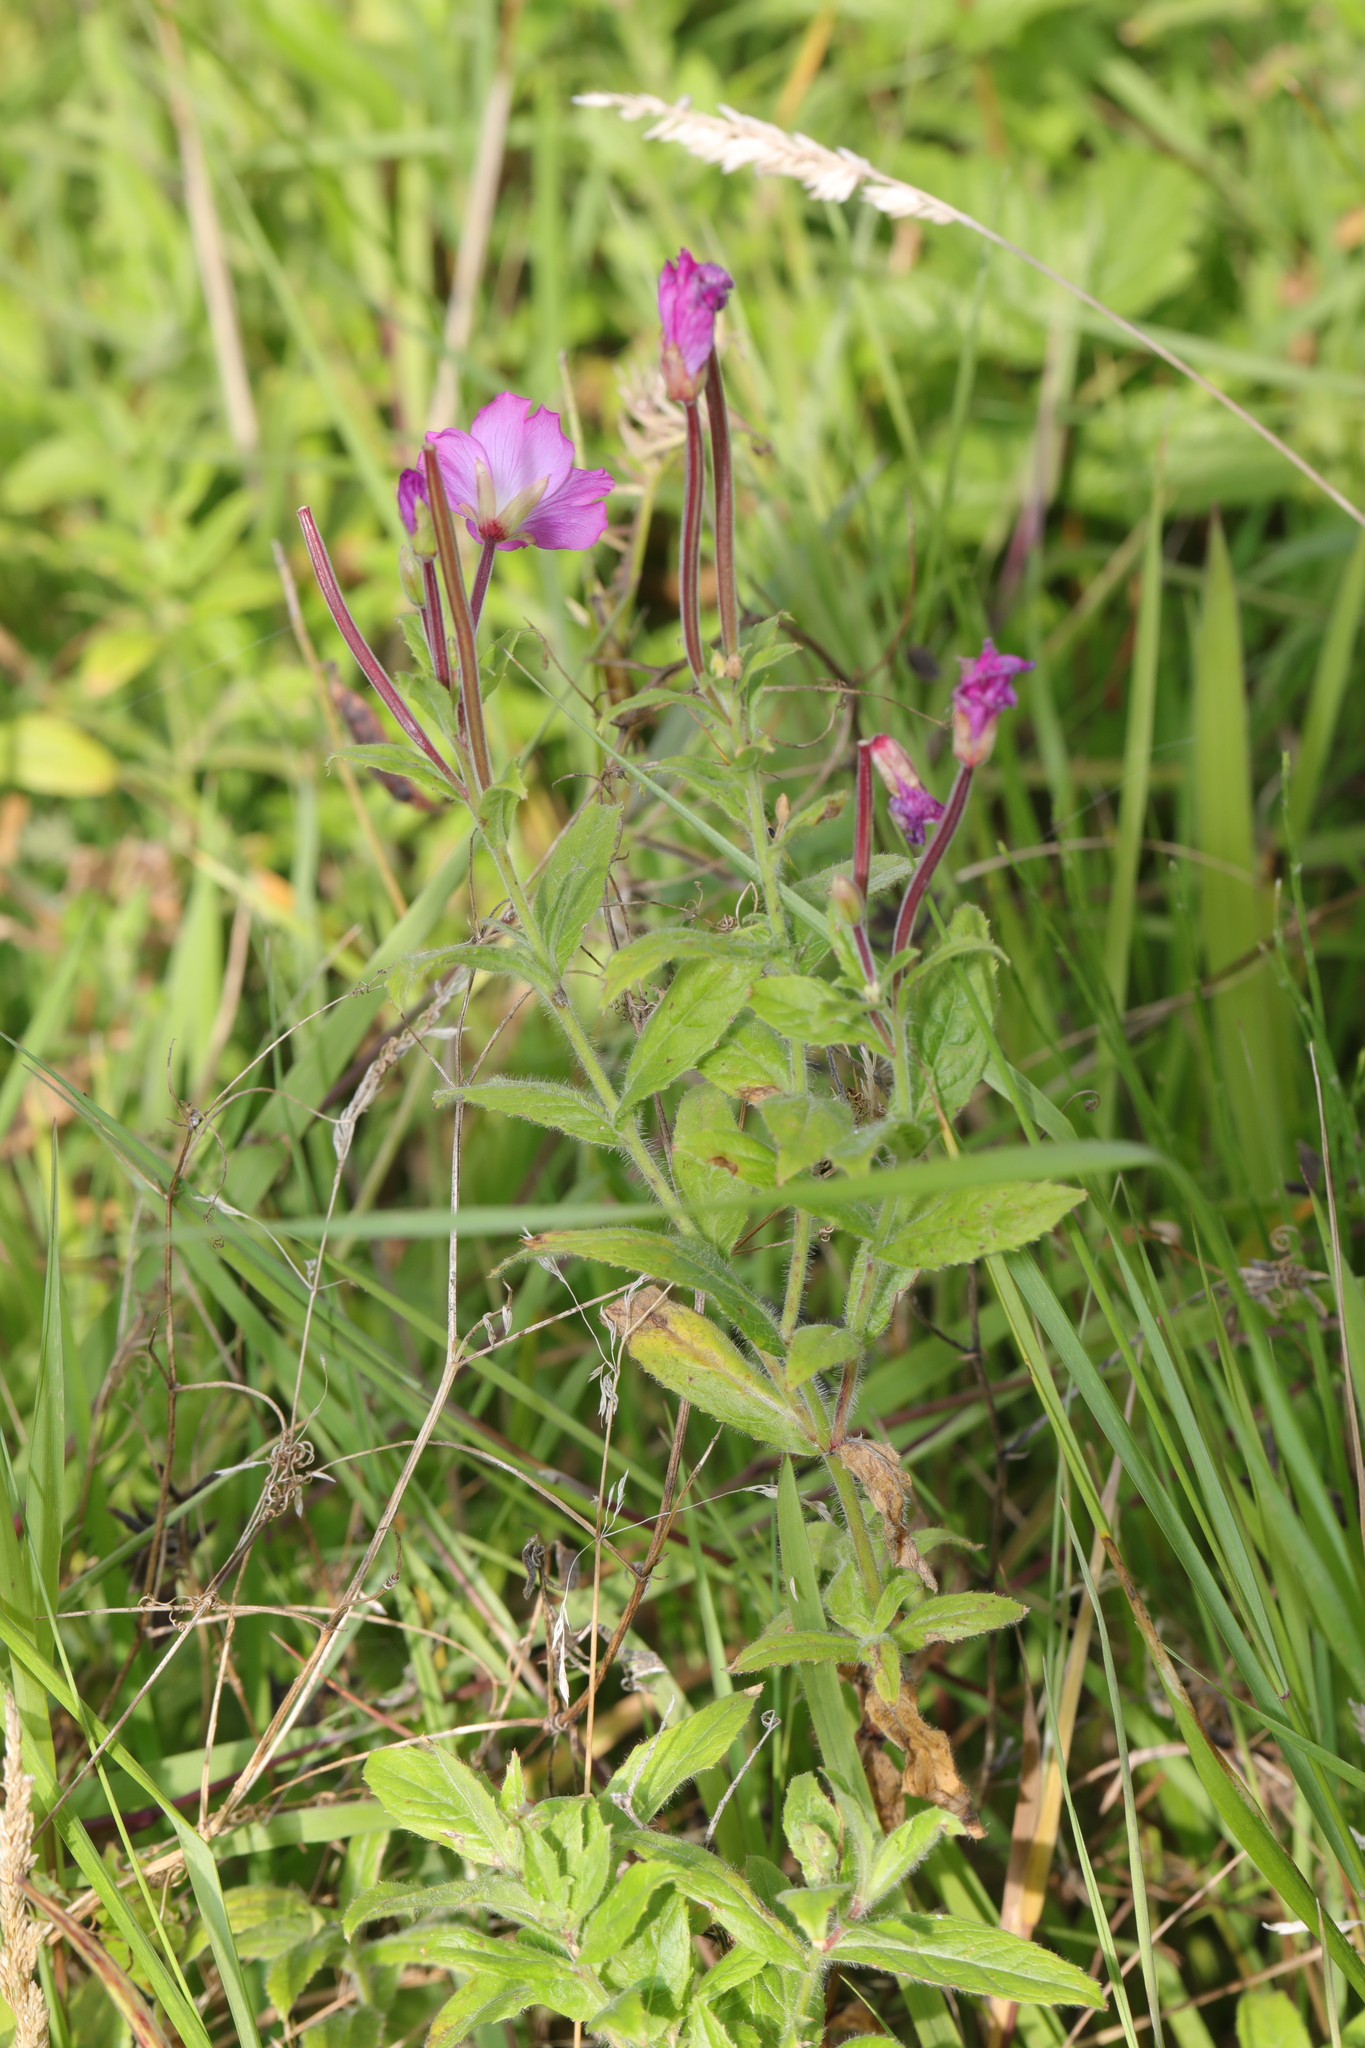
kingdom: Plantae
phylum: Tracheophyta
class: Magnoliopsida
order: Myrtales
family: Onagraceae
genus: Epilobium
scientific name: Epilobium hirsutum
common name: Great willowherb
